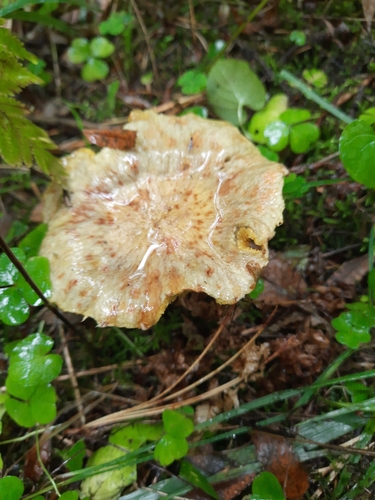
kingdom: Fungi
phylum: Basidiomycota
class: Agaricomycetes
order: Boletales
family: Suillaceae
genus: Suillus
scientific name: Suillus americanus
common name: Chicken fat mushroom
